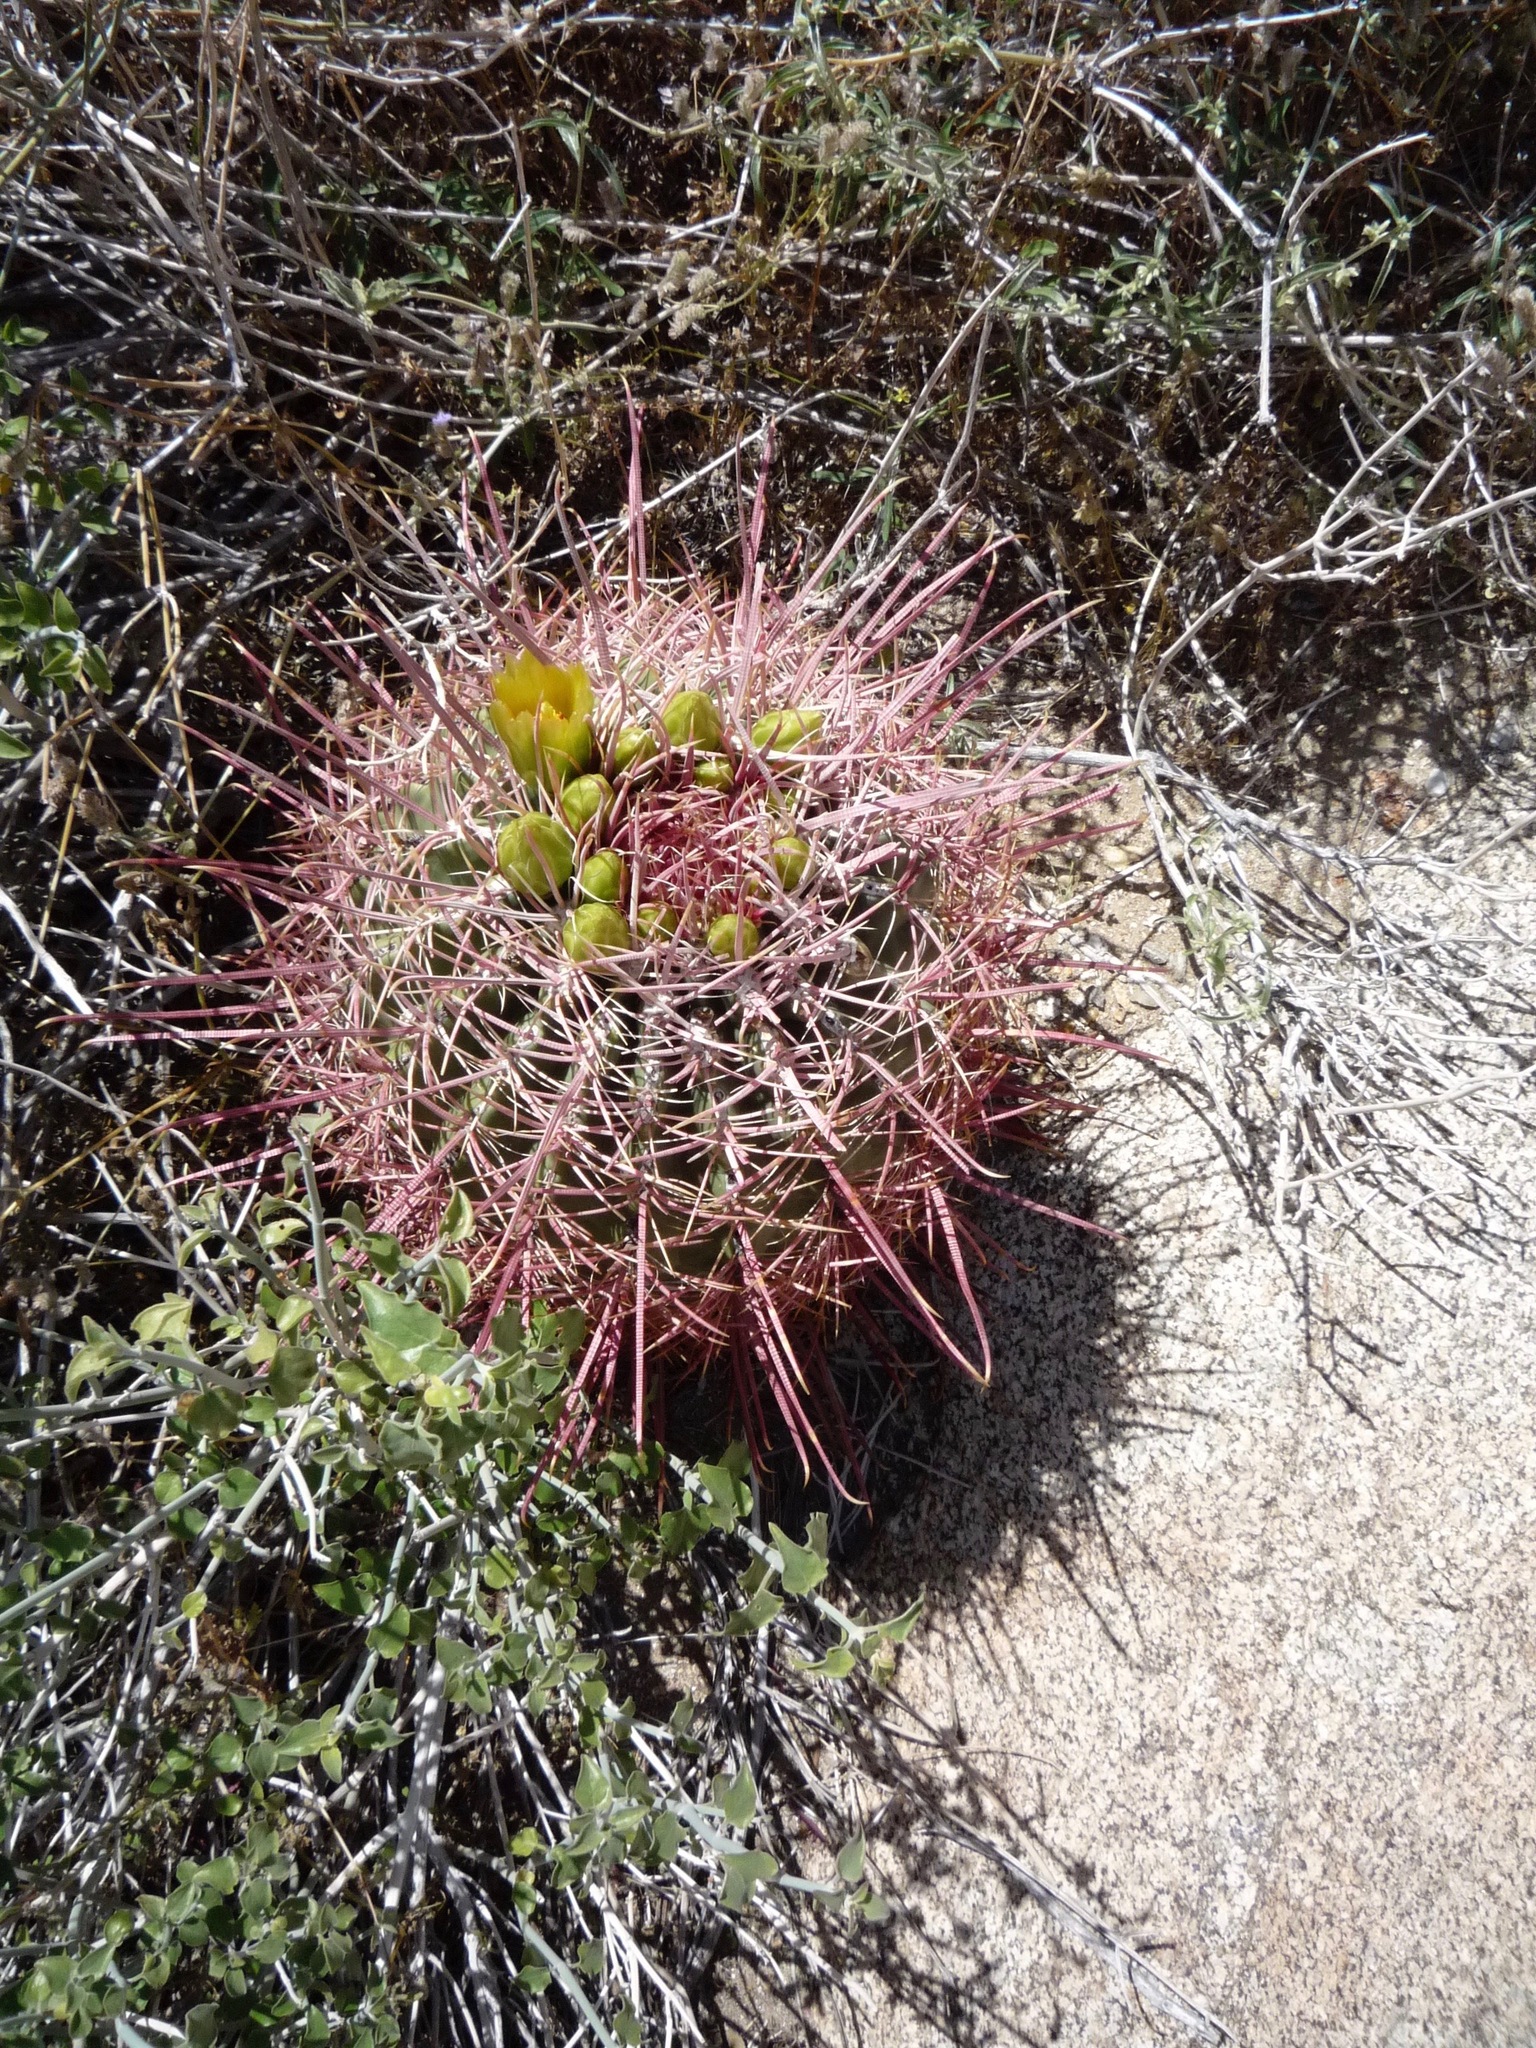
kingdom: Plantae
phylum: Tracheophyta
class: Magnoliopsida
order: Caryophyllales
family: Cactaceae
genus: Ferocactus
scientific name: Ferocactus cylindraceus
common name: California barrel cactus
